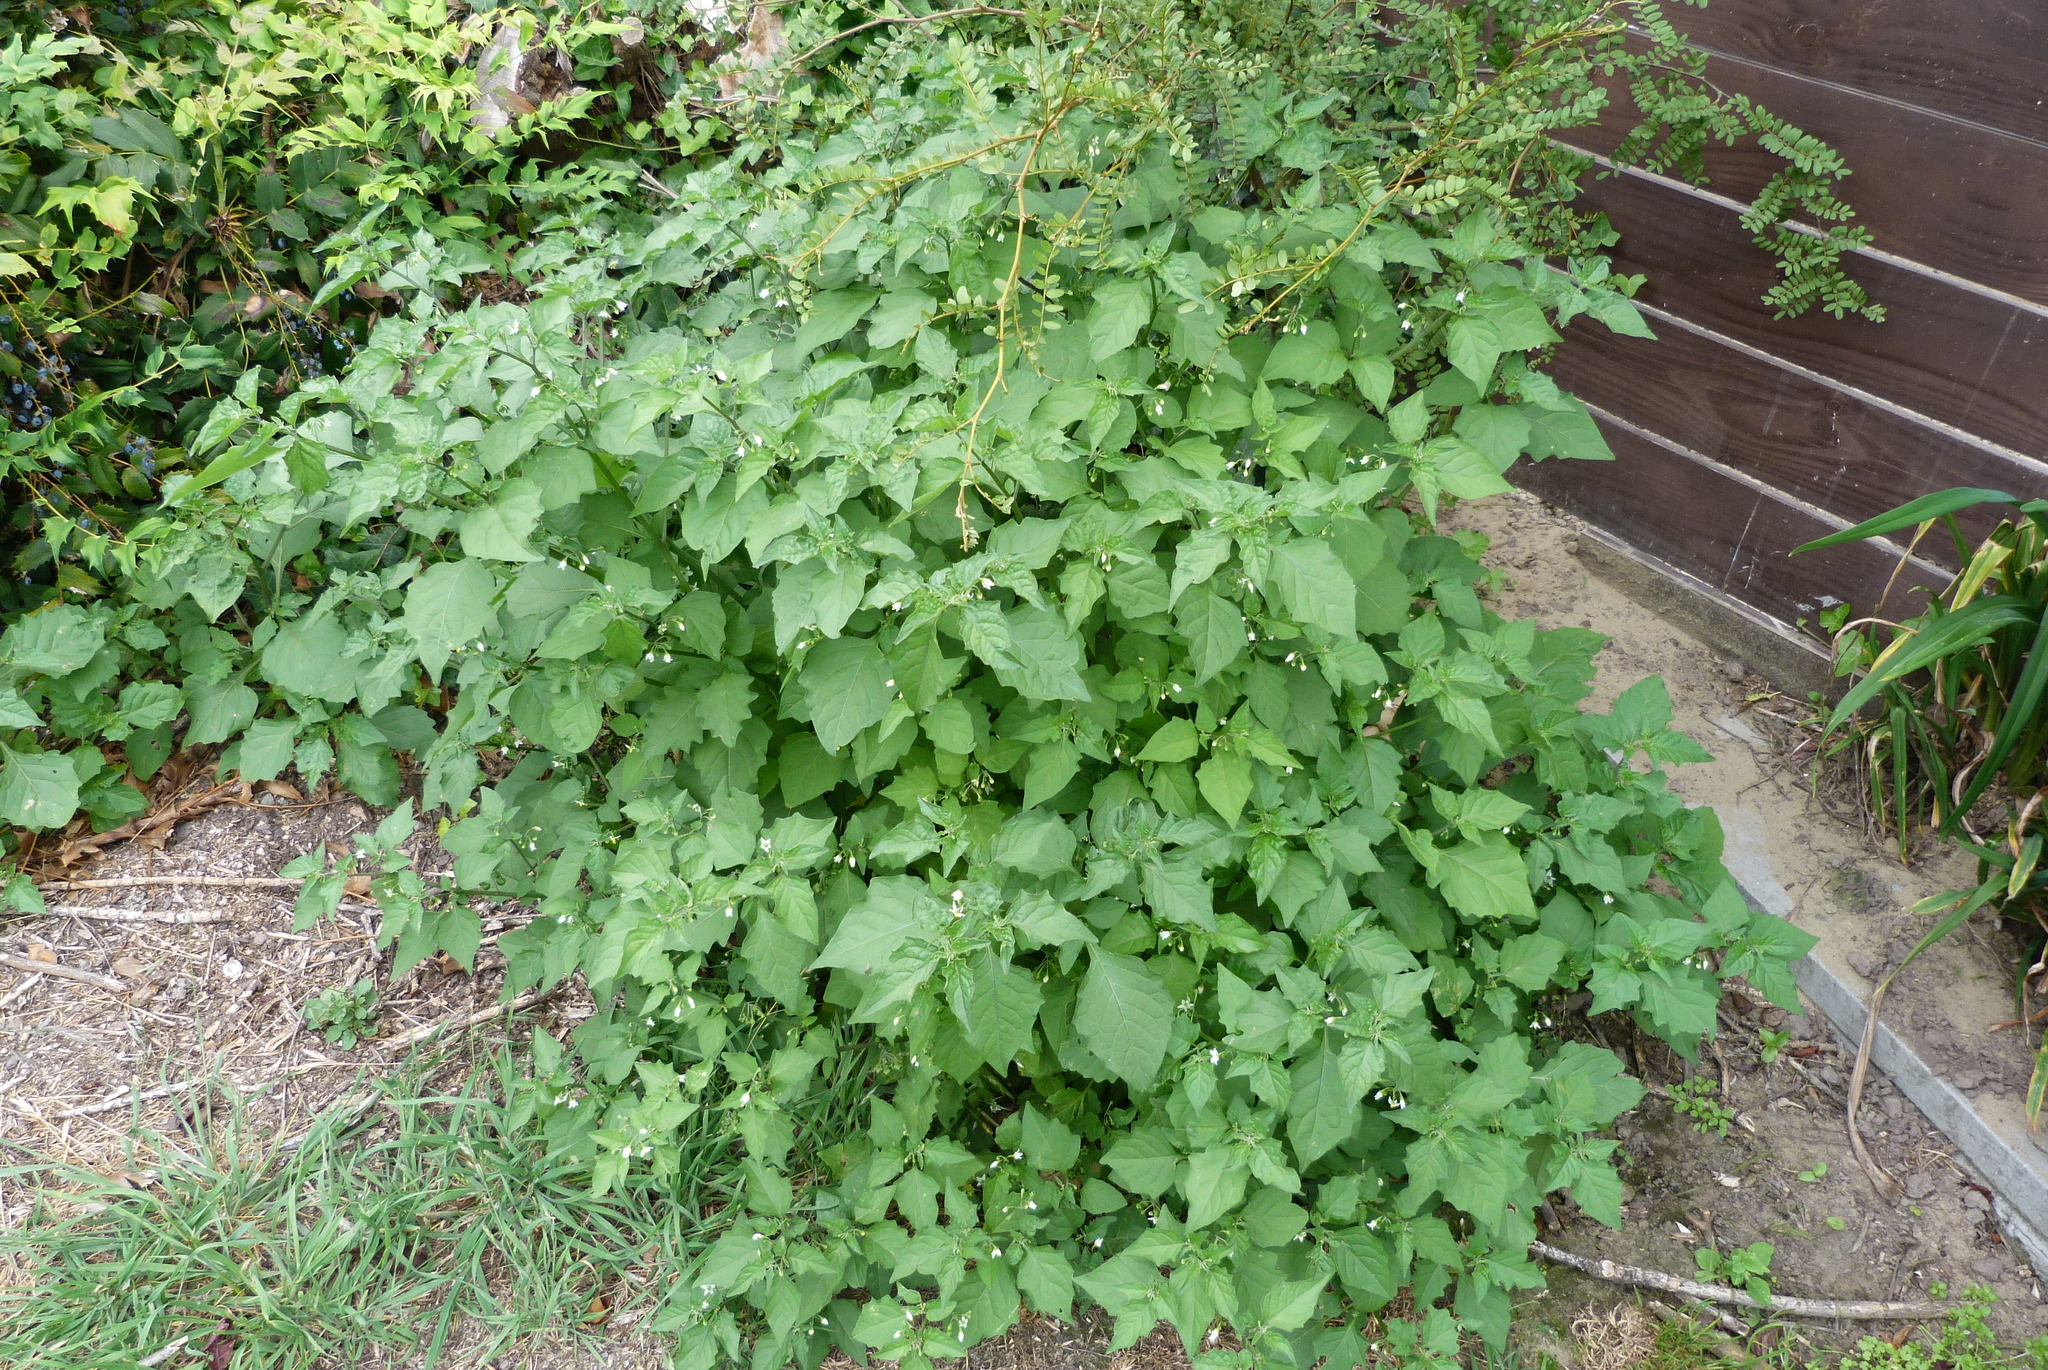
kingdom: Plantae
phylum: Tracheophyta
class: Magnoliopsida
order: Solanales
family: Solanaceae
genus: Solanum
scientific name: Solanum nigrum
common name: Black nightshade
